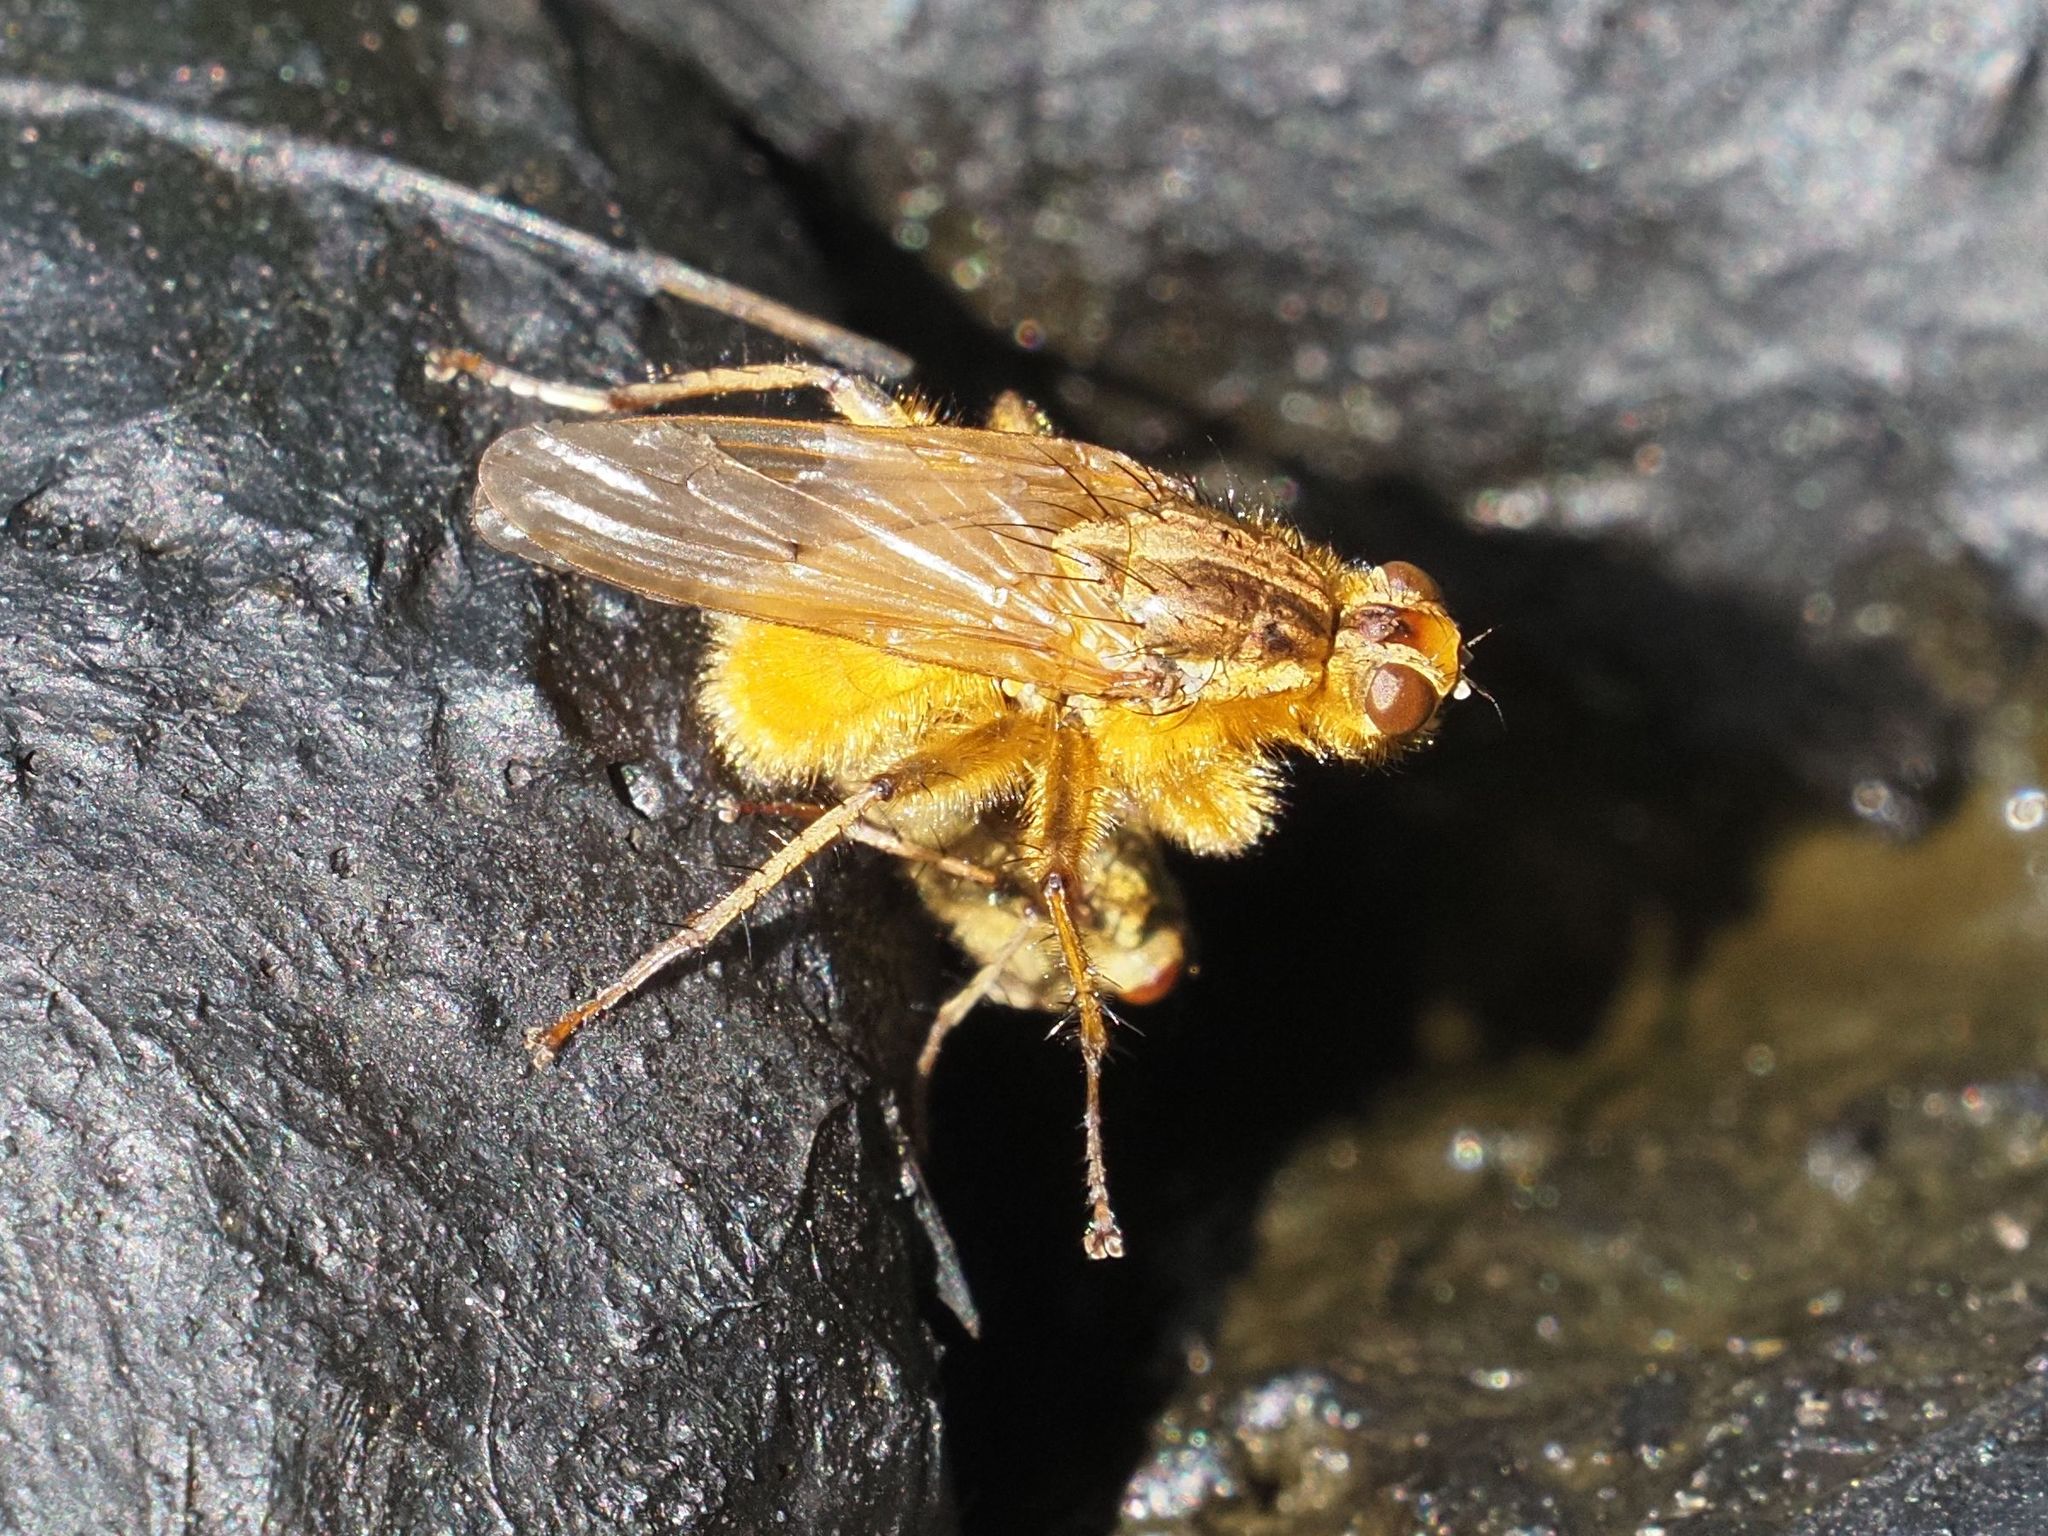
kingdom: Animalia
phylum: Arthropoda
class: Insecta
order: Diptera
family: Scathophagidae
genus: Scathophaga
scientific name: Scathophaga stercoraria
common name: Yellow dung fly
